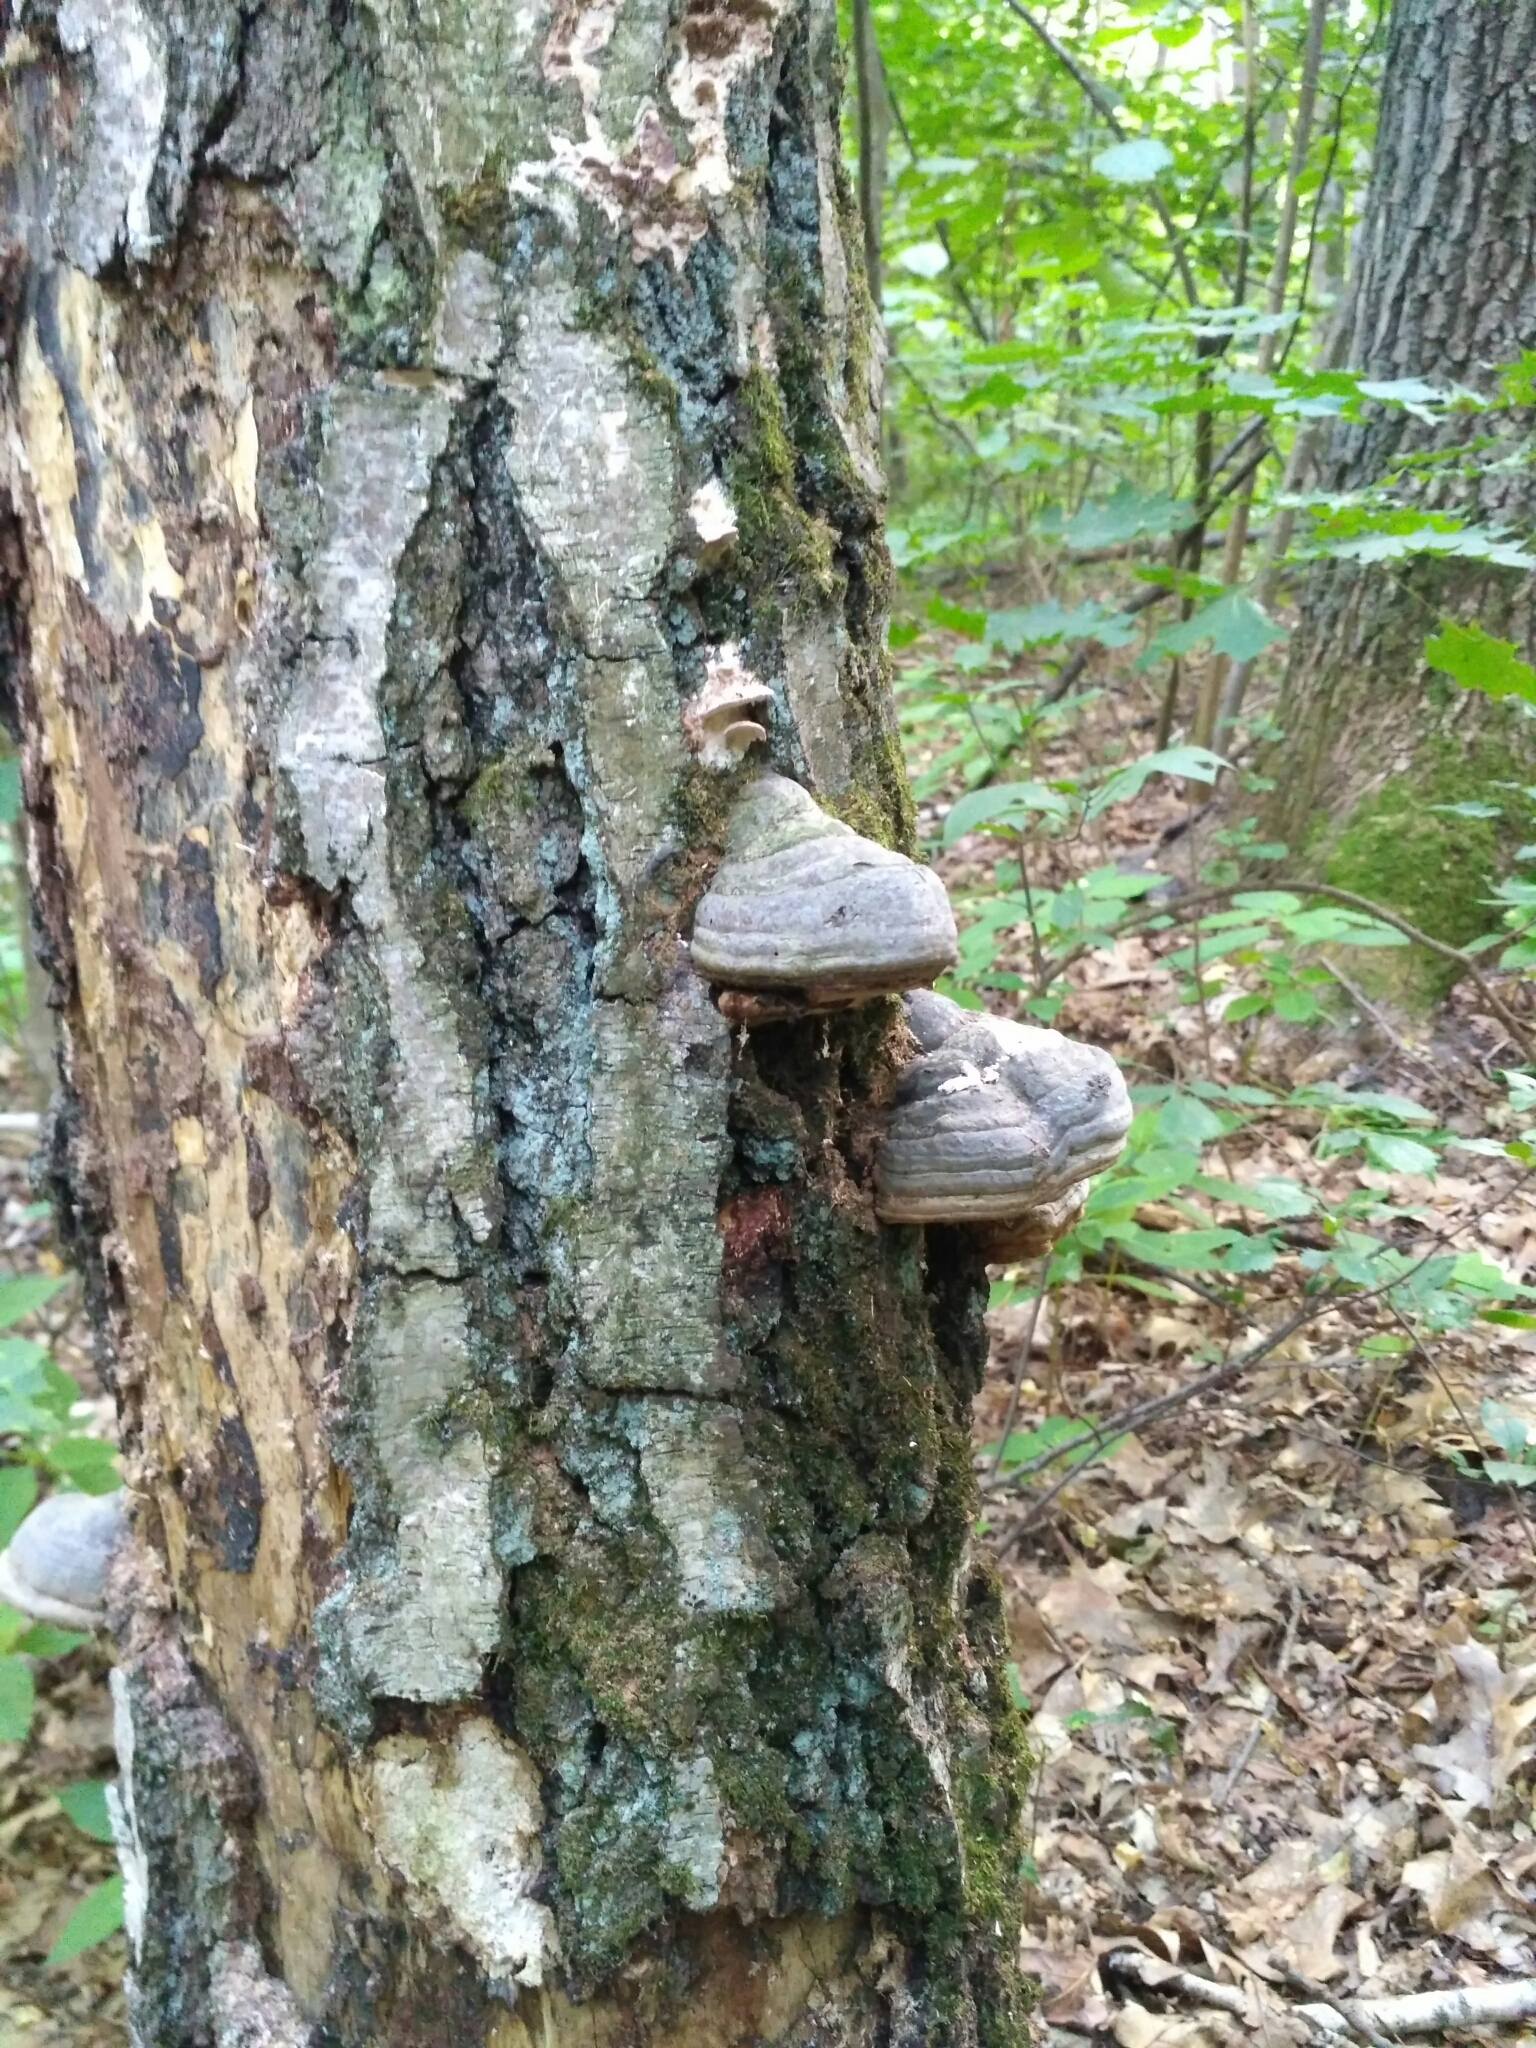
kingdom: Fungi
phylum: Basidiomycota
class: Agaricomycetes
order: Polyporales
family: Polyporaceae
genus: Fomes
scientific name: Fomes fomentarius
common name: Hoof fungus
